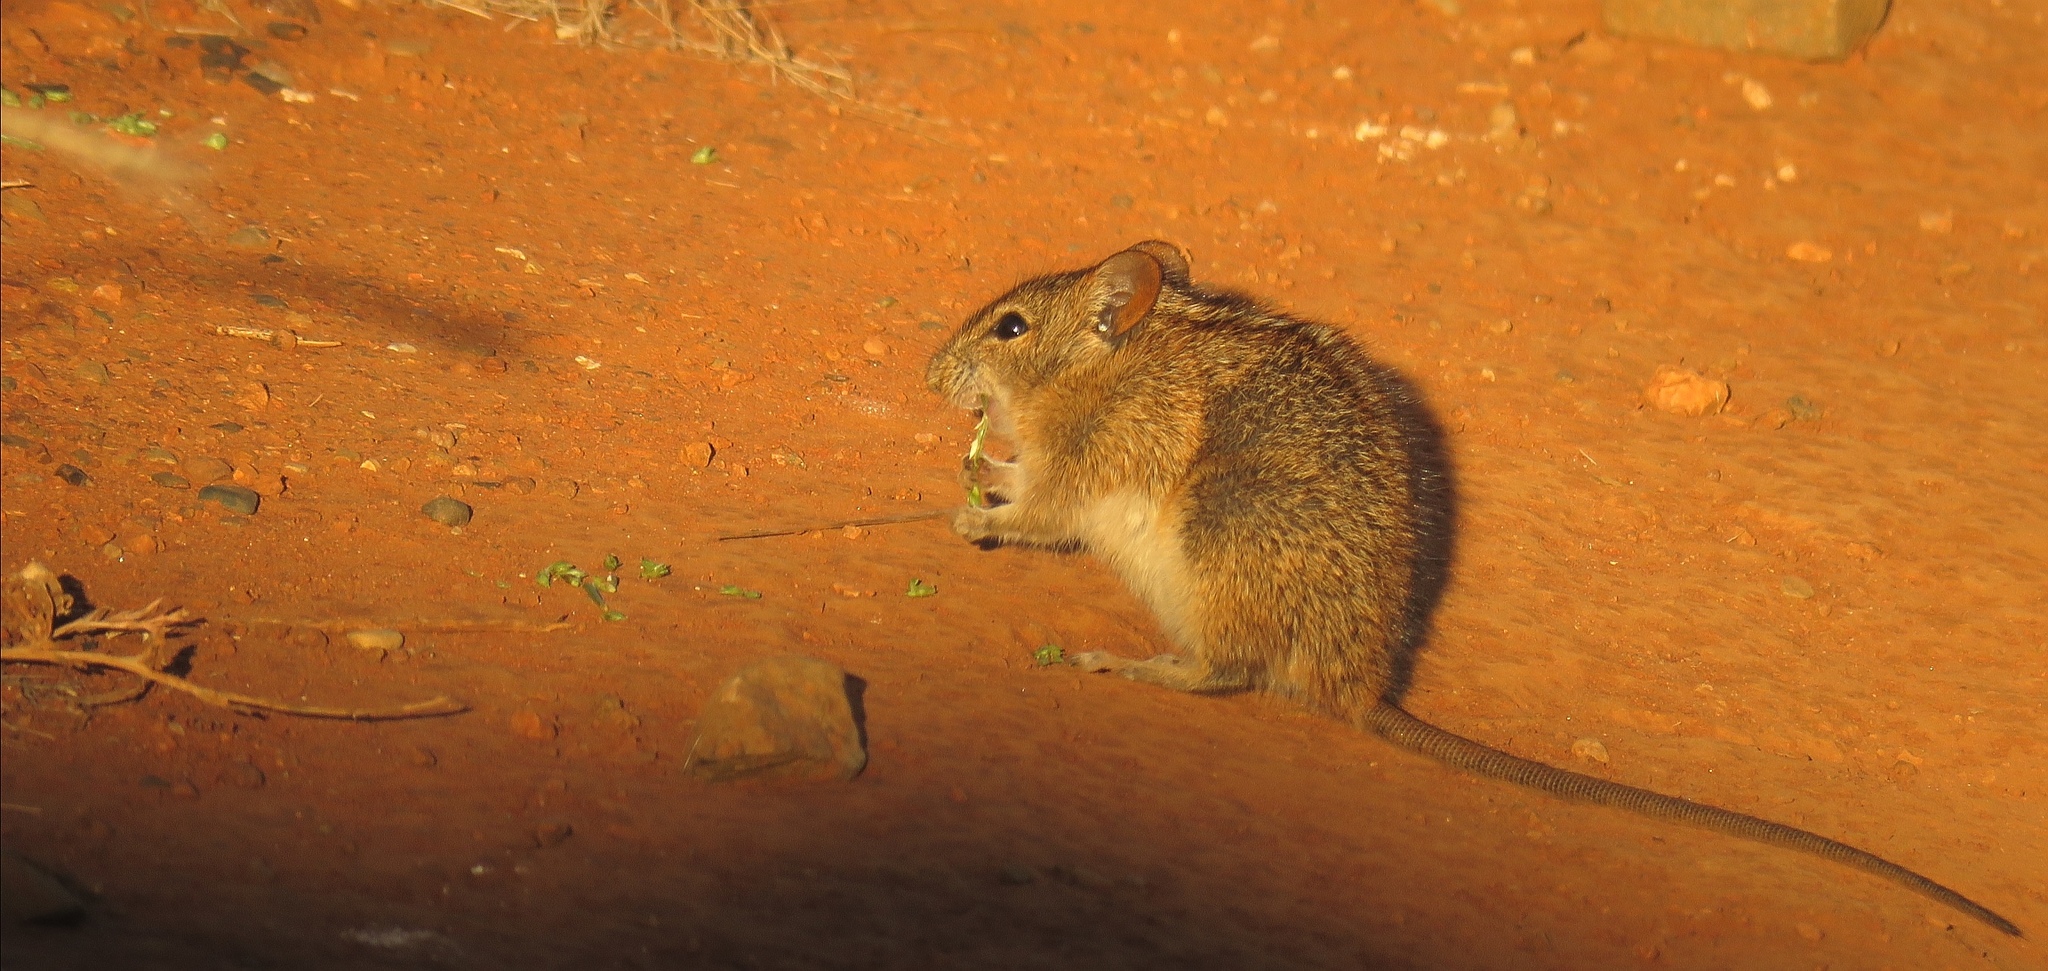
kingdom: Animalia
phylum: Chordata
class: Mammalia
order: Rodentia
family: Muridae
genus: Rhabdomys
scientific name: Rhabdomys pumilio
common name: Xeric four-striped grass rat
